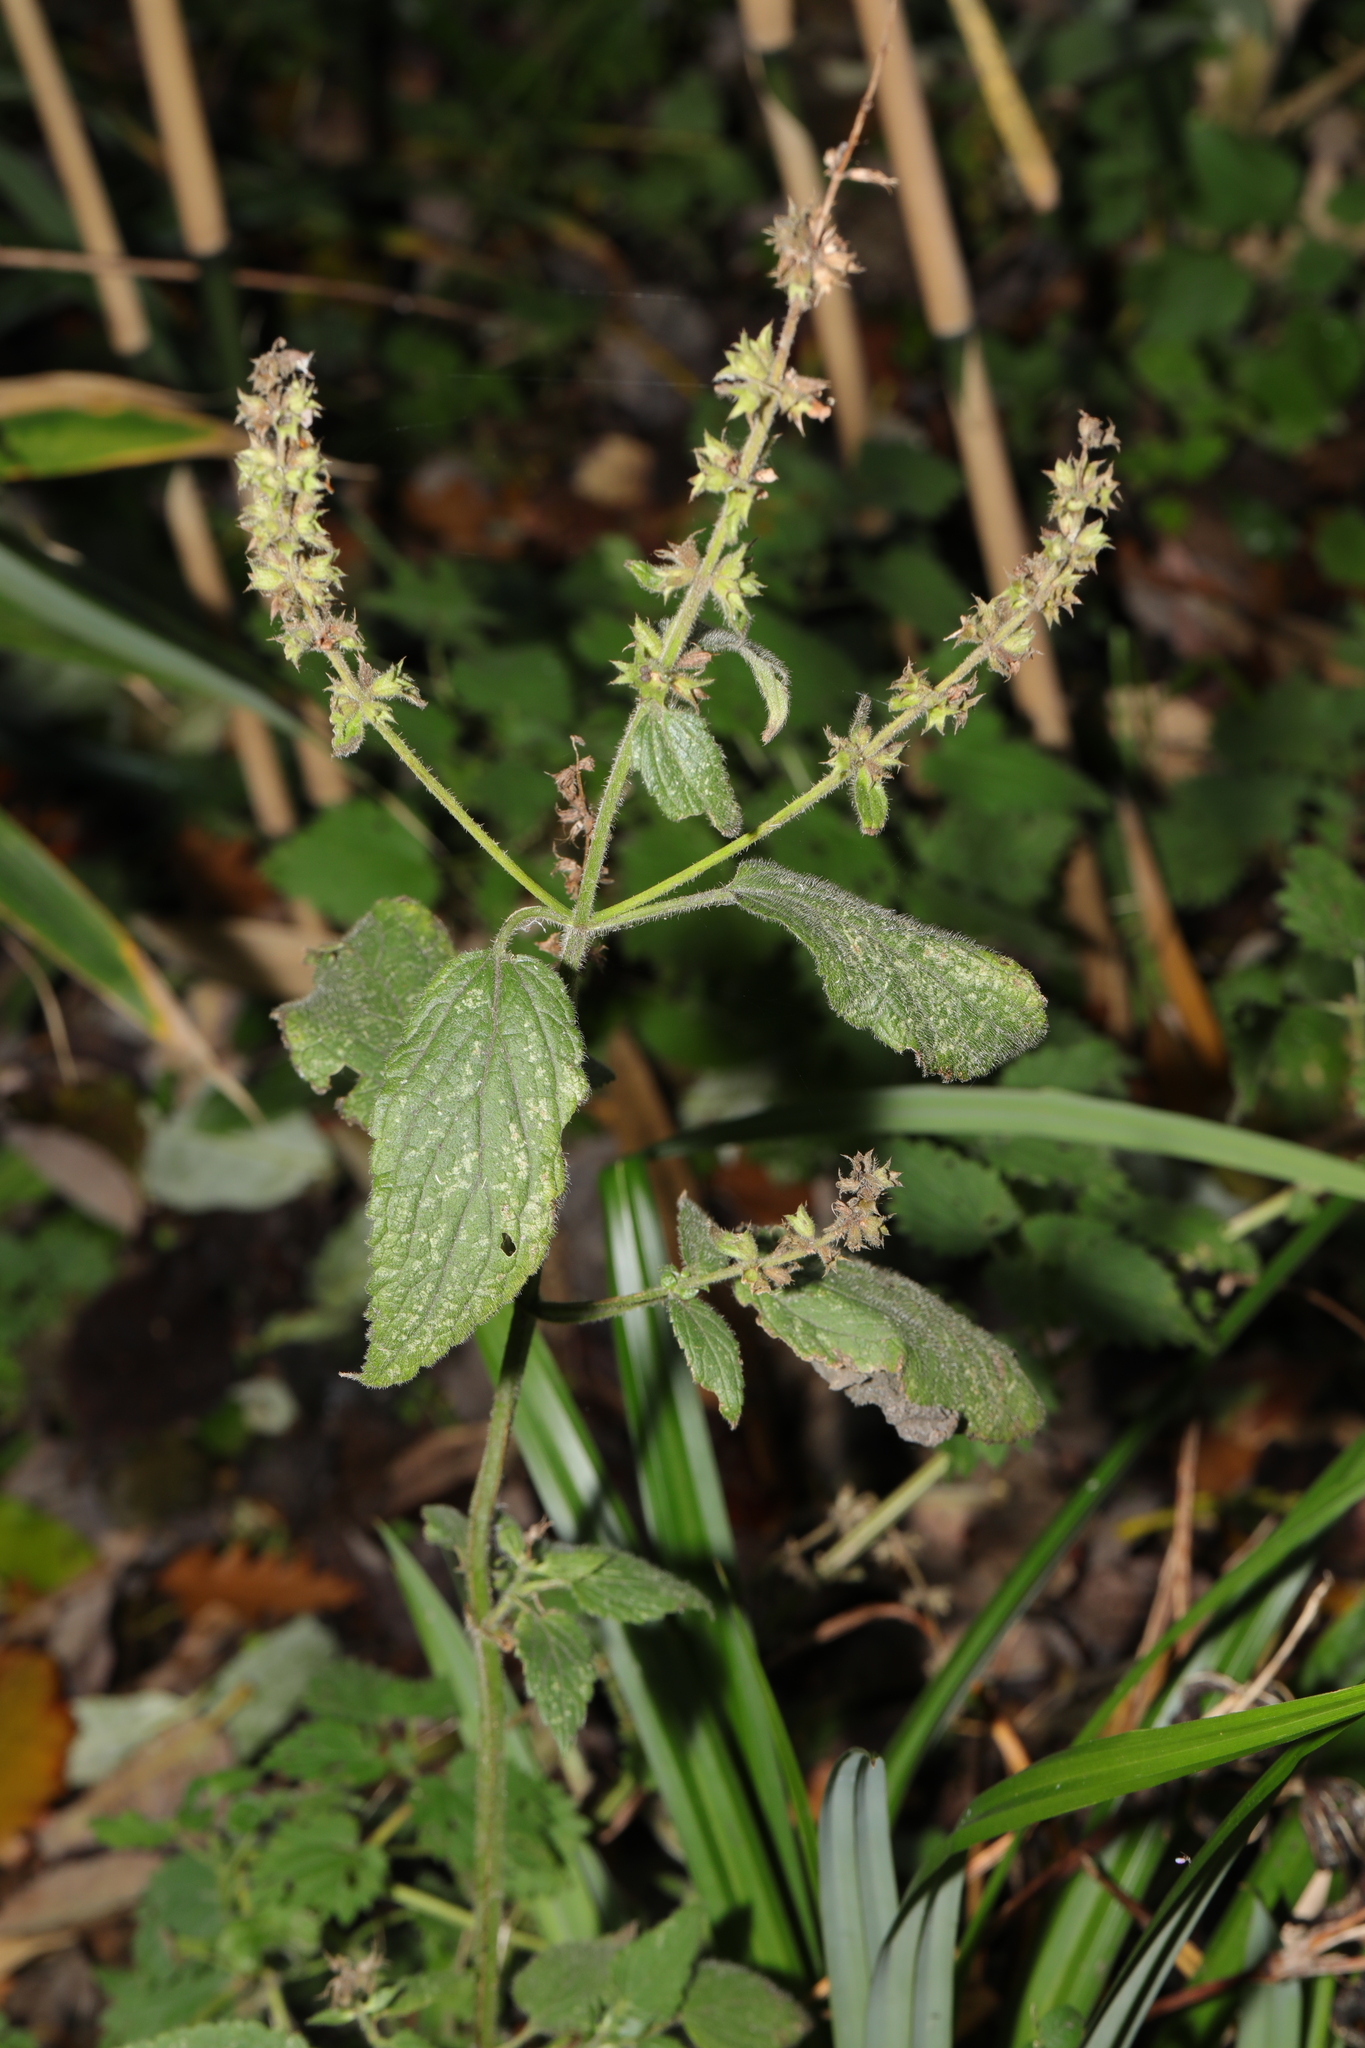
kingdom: Plantae
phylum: Tracheophyta
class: Magnoliopsida
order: Lamiales
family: Lamiaceae
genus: Stachys
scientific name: Stachys sylvatica
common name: Hedge woundwort
